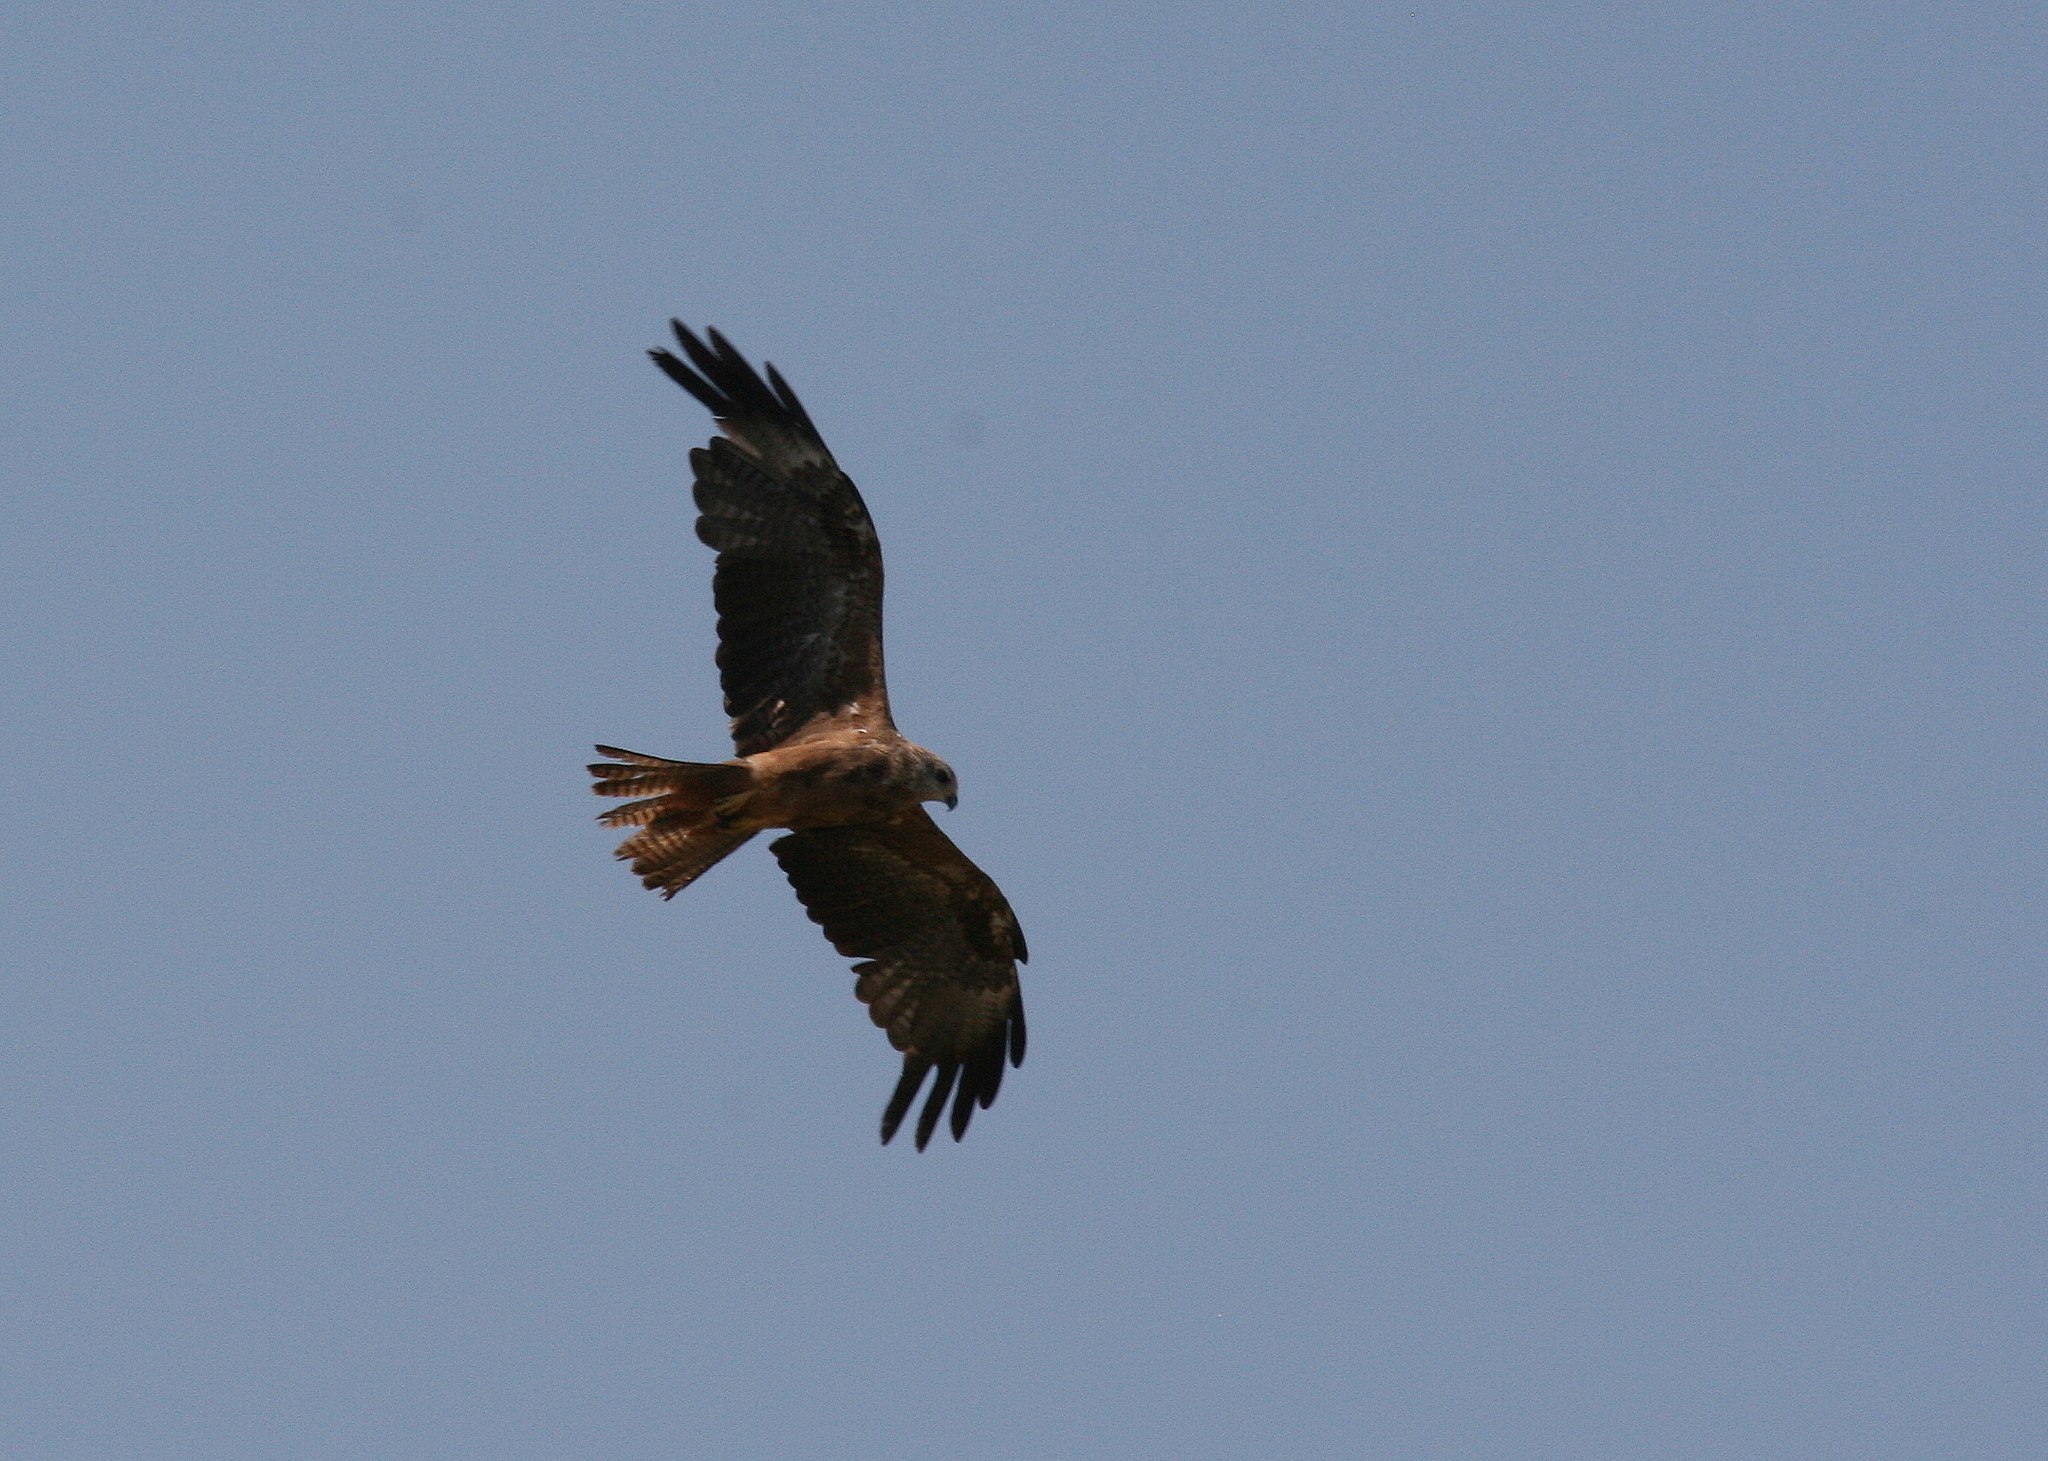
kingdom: Animalia
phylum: Chordata
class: Aves
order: Accipitriformes
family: Accipitridae
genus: Milvus
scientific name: Milvus migrans
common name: Black kite
